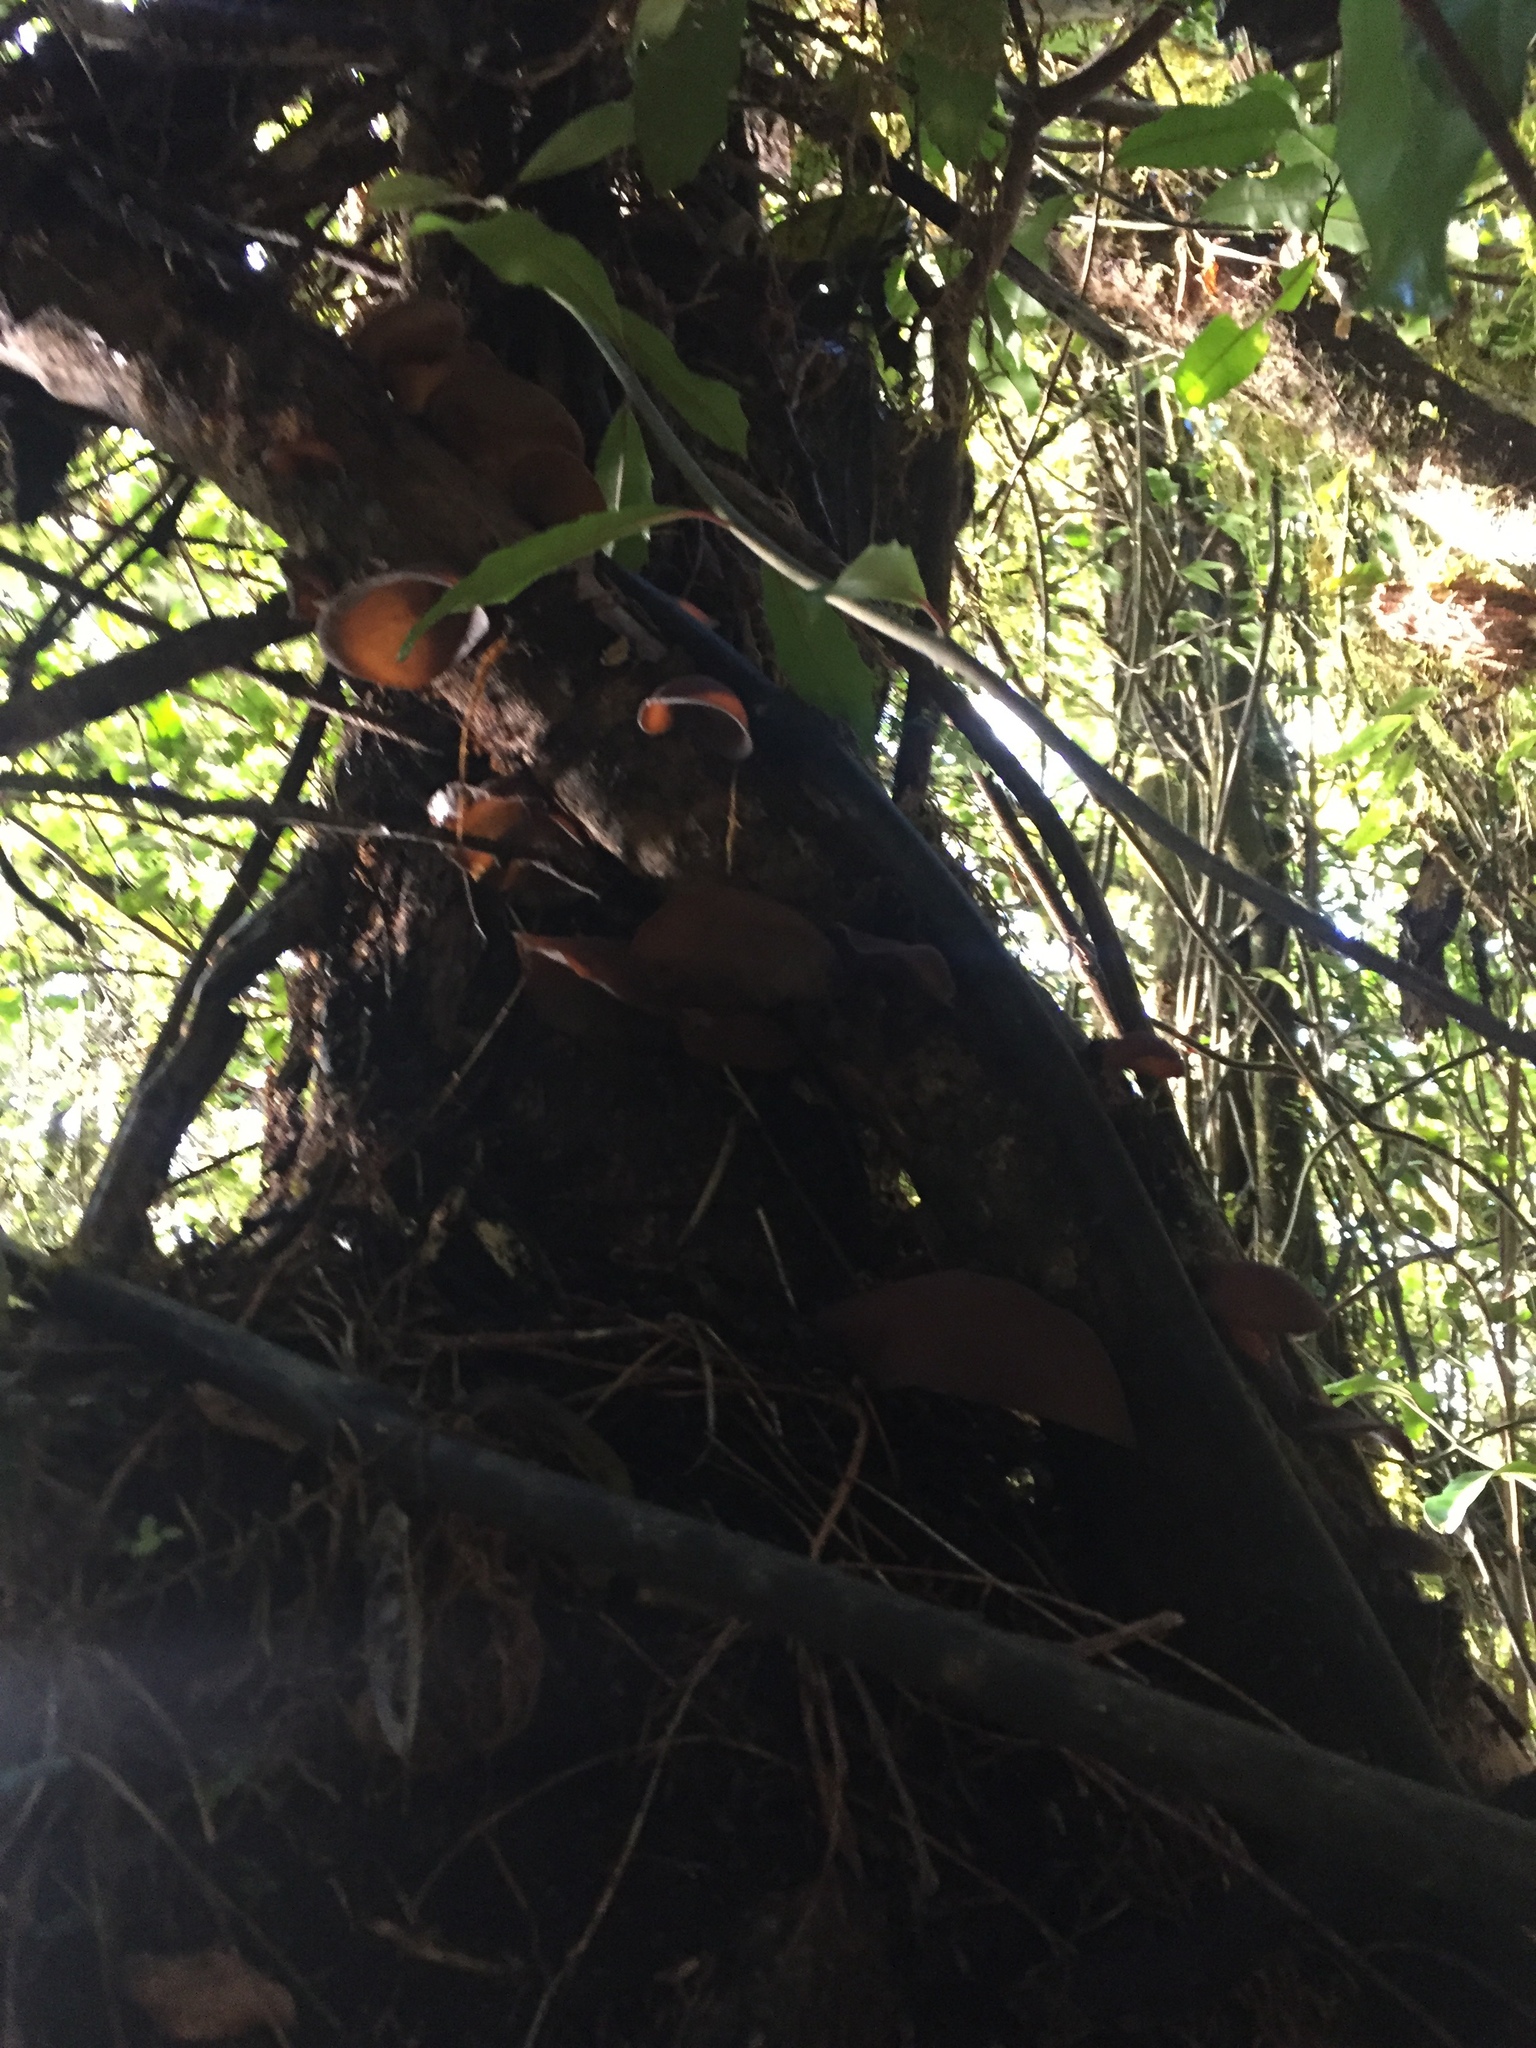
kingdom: Fungi
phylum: Basidiomycota
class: Agaricomycetes
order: Auriculariales
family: Auriculariaceae
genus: Auricularia
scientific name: Auricularia cornea
